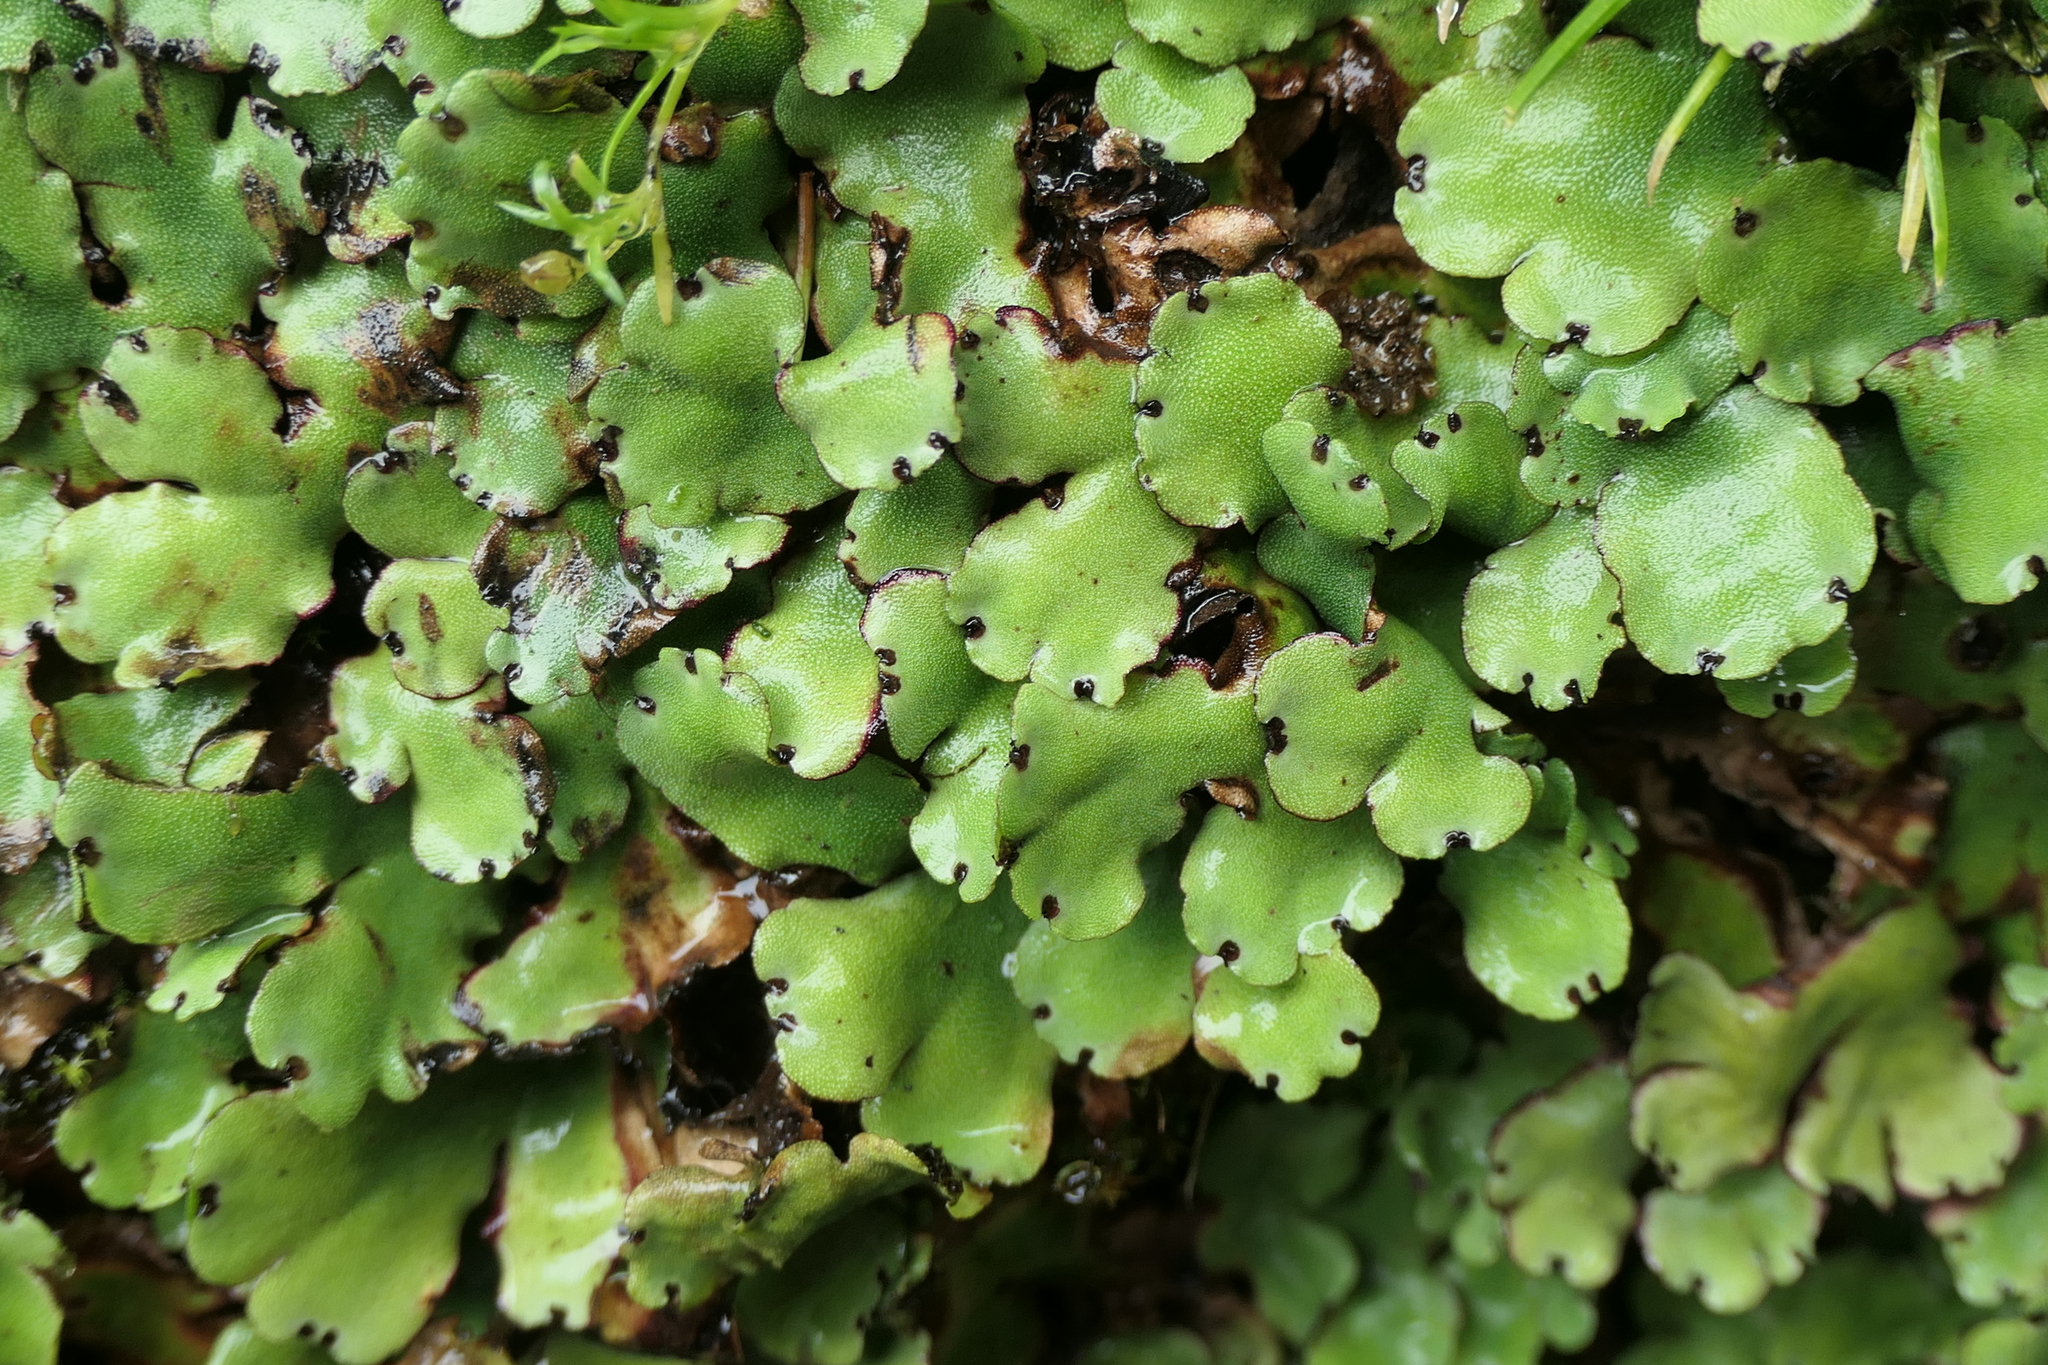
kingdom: Plantae
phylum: Marchantiophyta
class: Marchantiopsida
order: Marchantiales
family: Marchantiaceae
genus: Marchantia
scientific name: Marchantia paleacea
